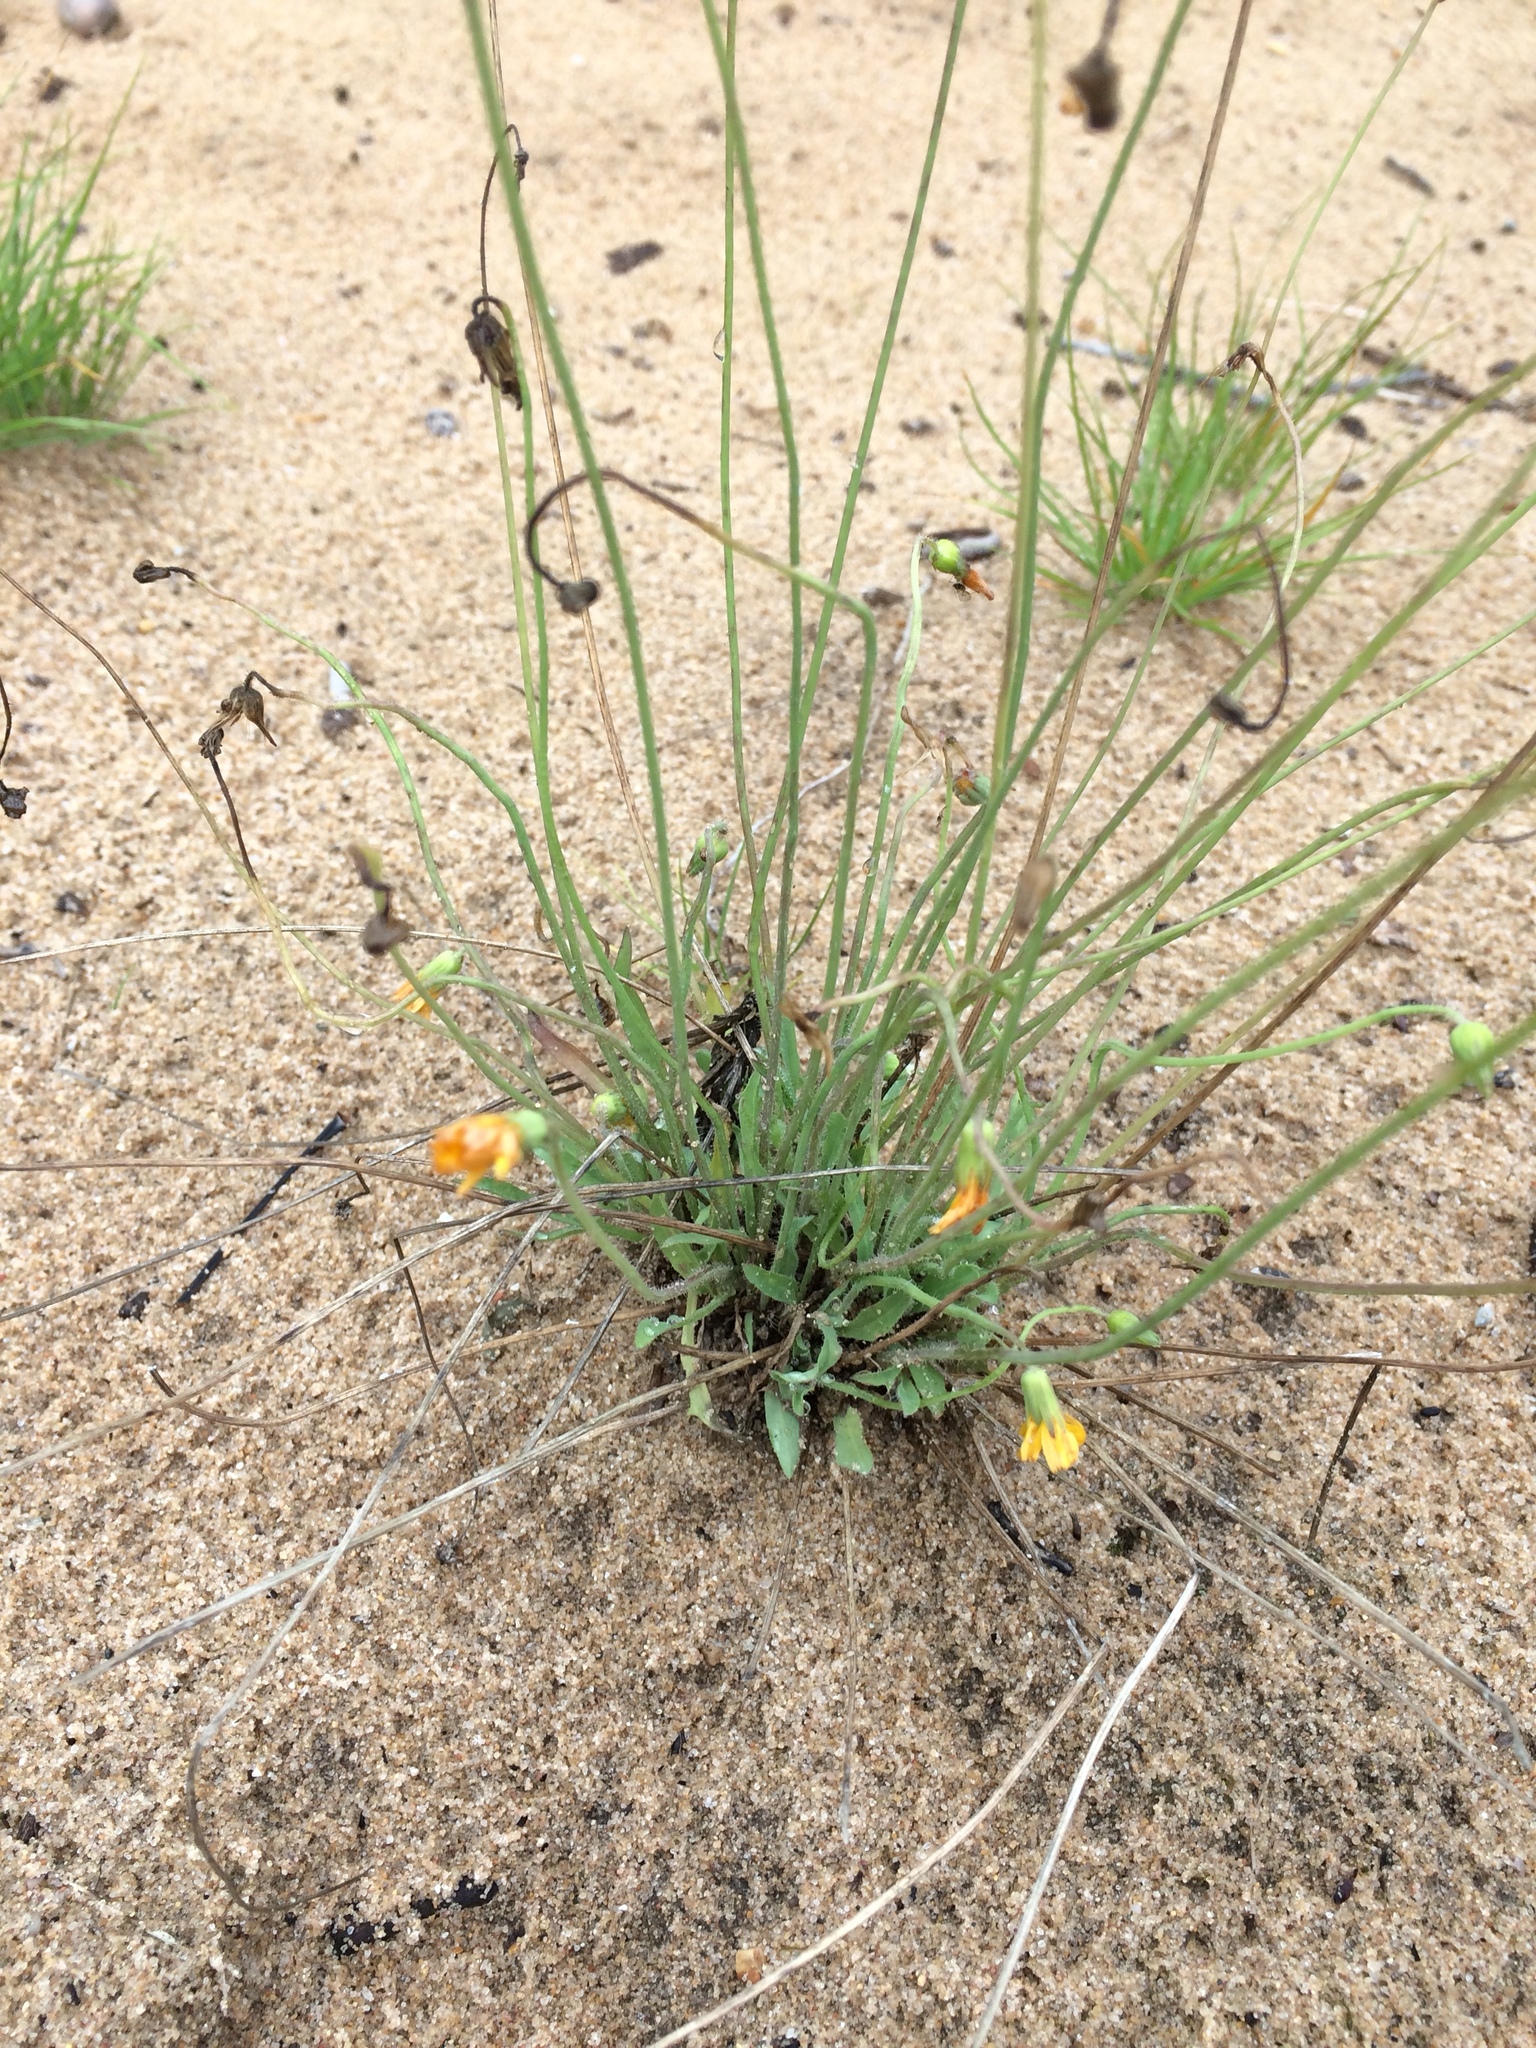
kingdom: Plantae
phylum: Tracheophyta
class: Magnoliopsida
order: Asterales
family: Asteraceae
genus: Krigia
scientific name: Krigia virginica
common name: Virginia dwarf-dandelion
